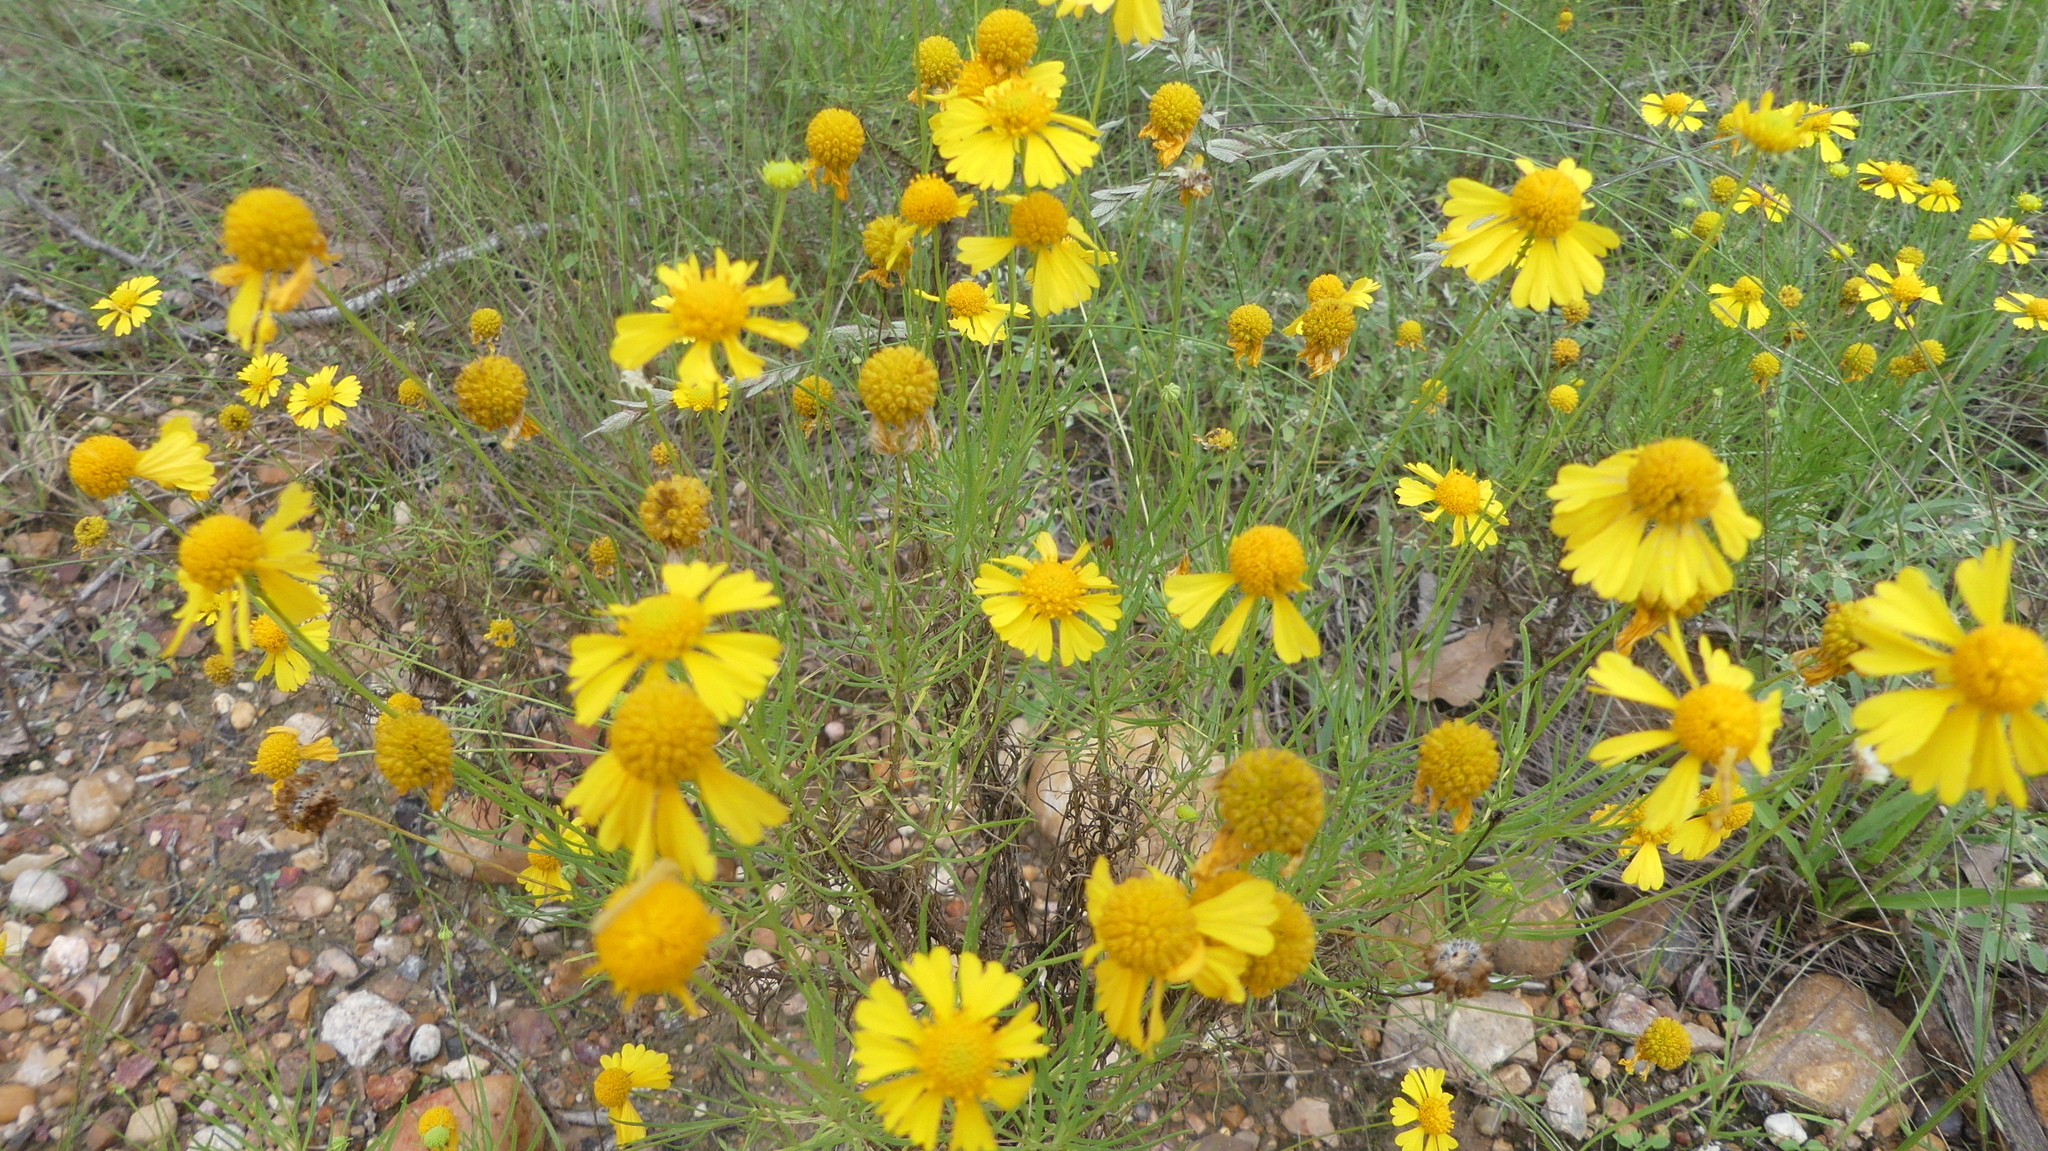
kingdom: Plantae
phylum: Tracheophyta
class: Magnoliopsida
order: Asterales
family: Asteraceae
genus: Helenium
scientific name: Helenium amarum
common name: Bitter sneezeweed
